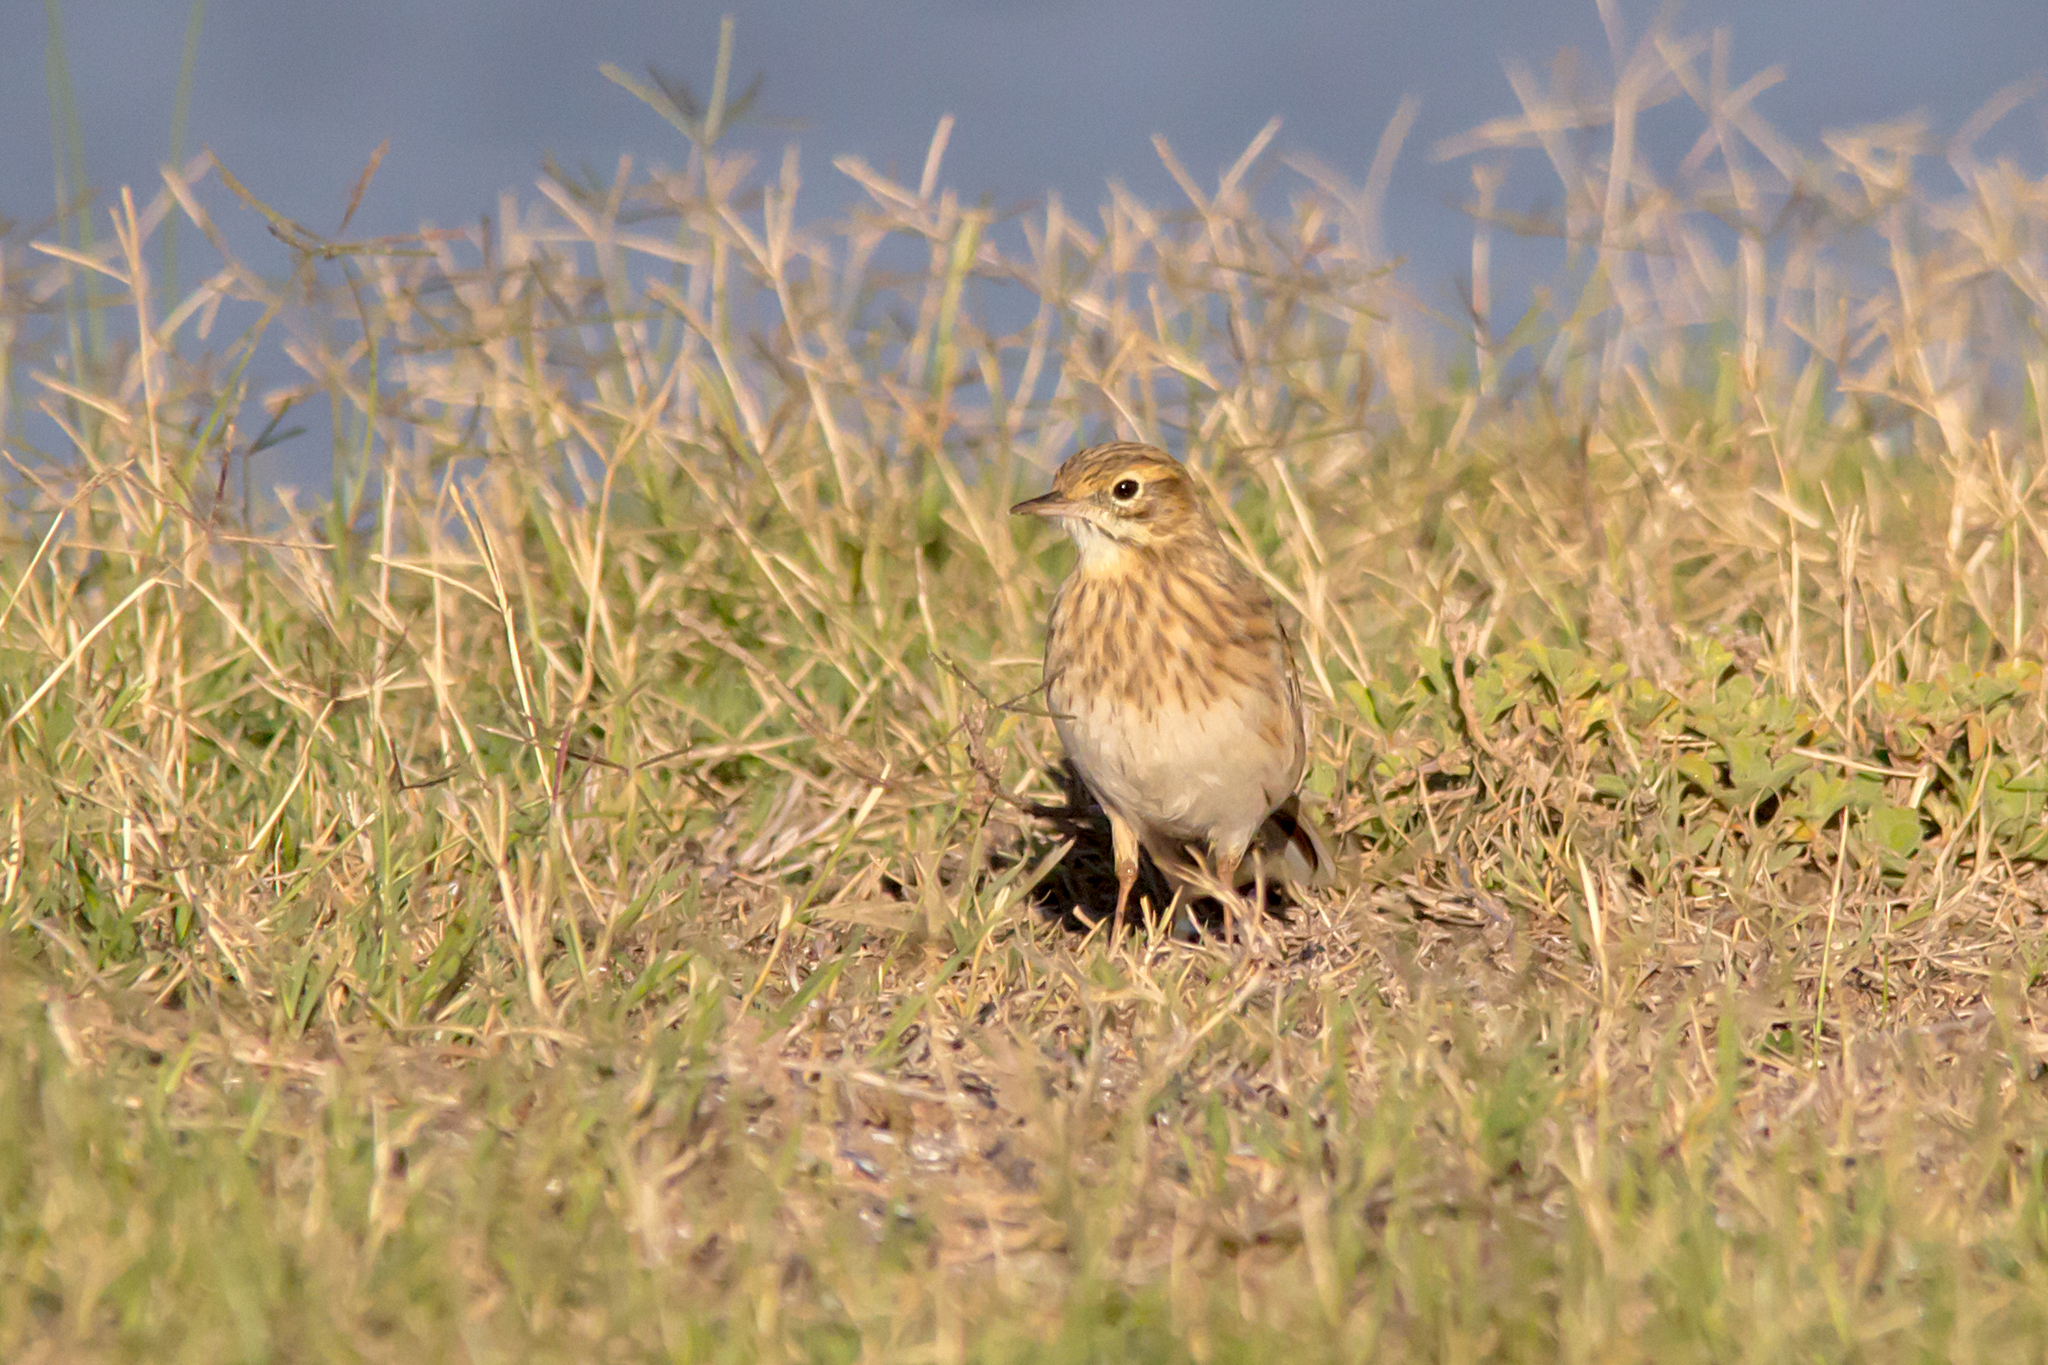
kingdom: Animalia
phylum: Chordata
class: Aves
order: Passeriformes
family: Motacillidae
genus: Anthus
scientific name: Anthus australis
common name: Australian pipit
